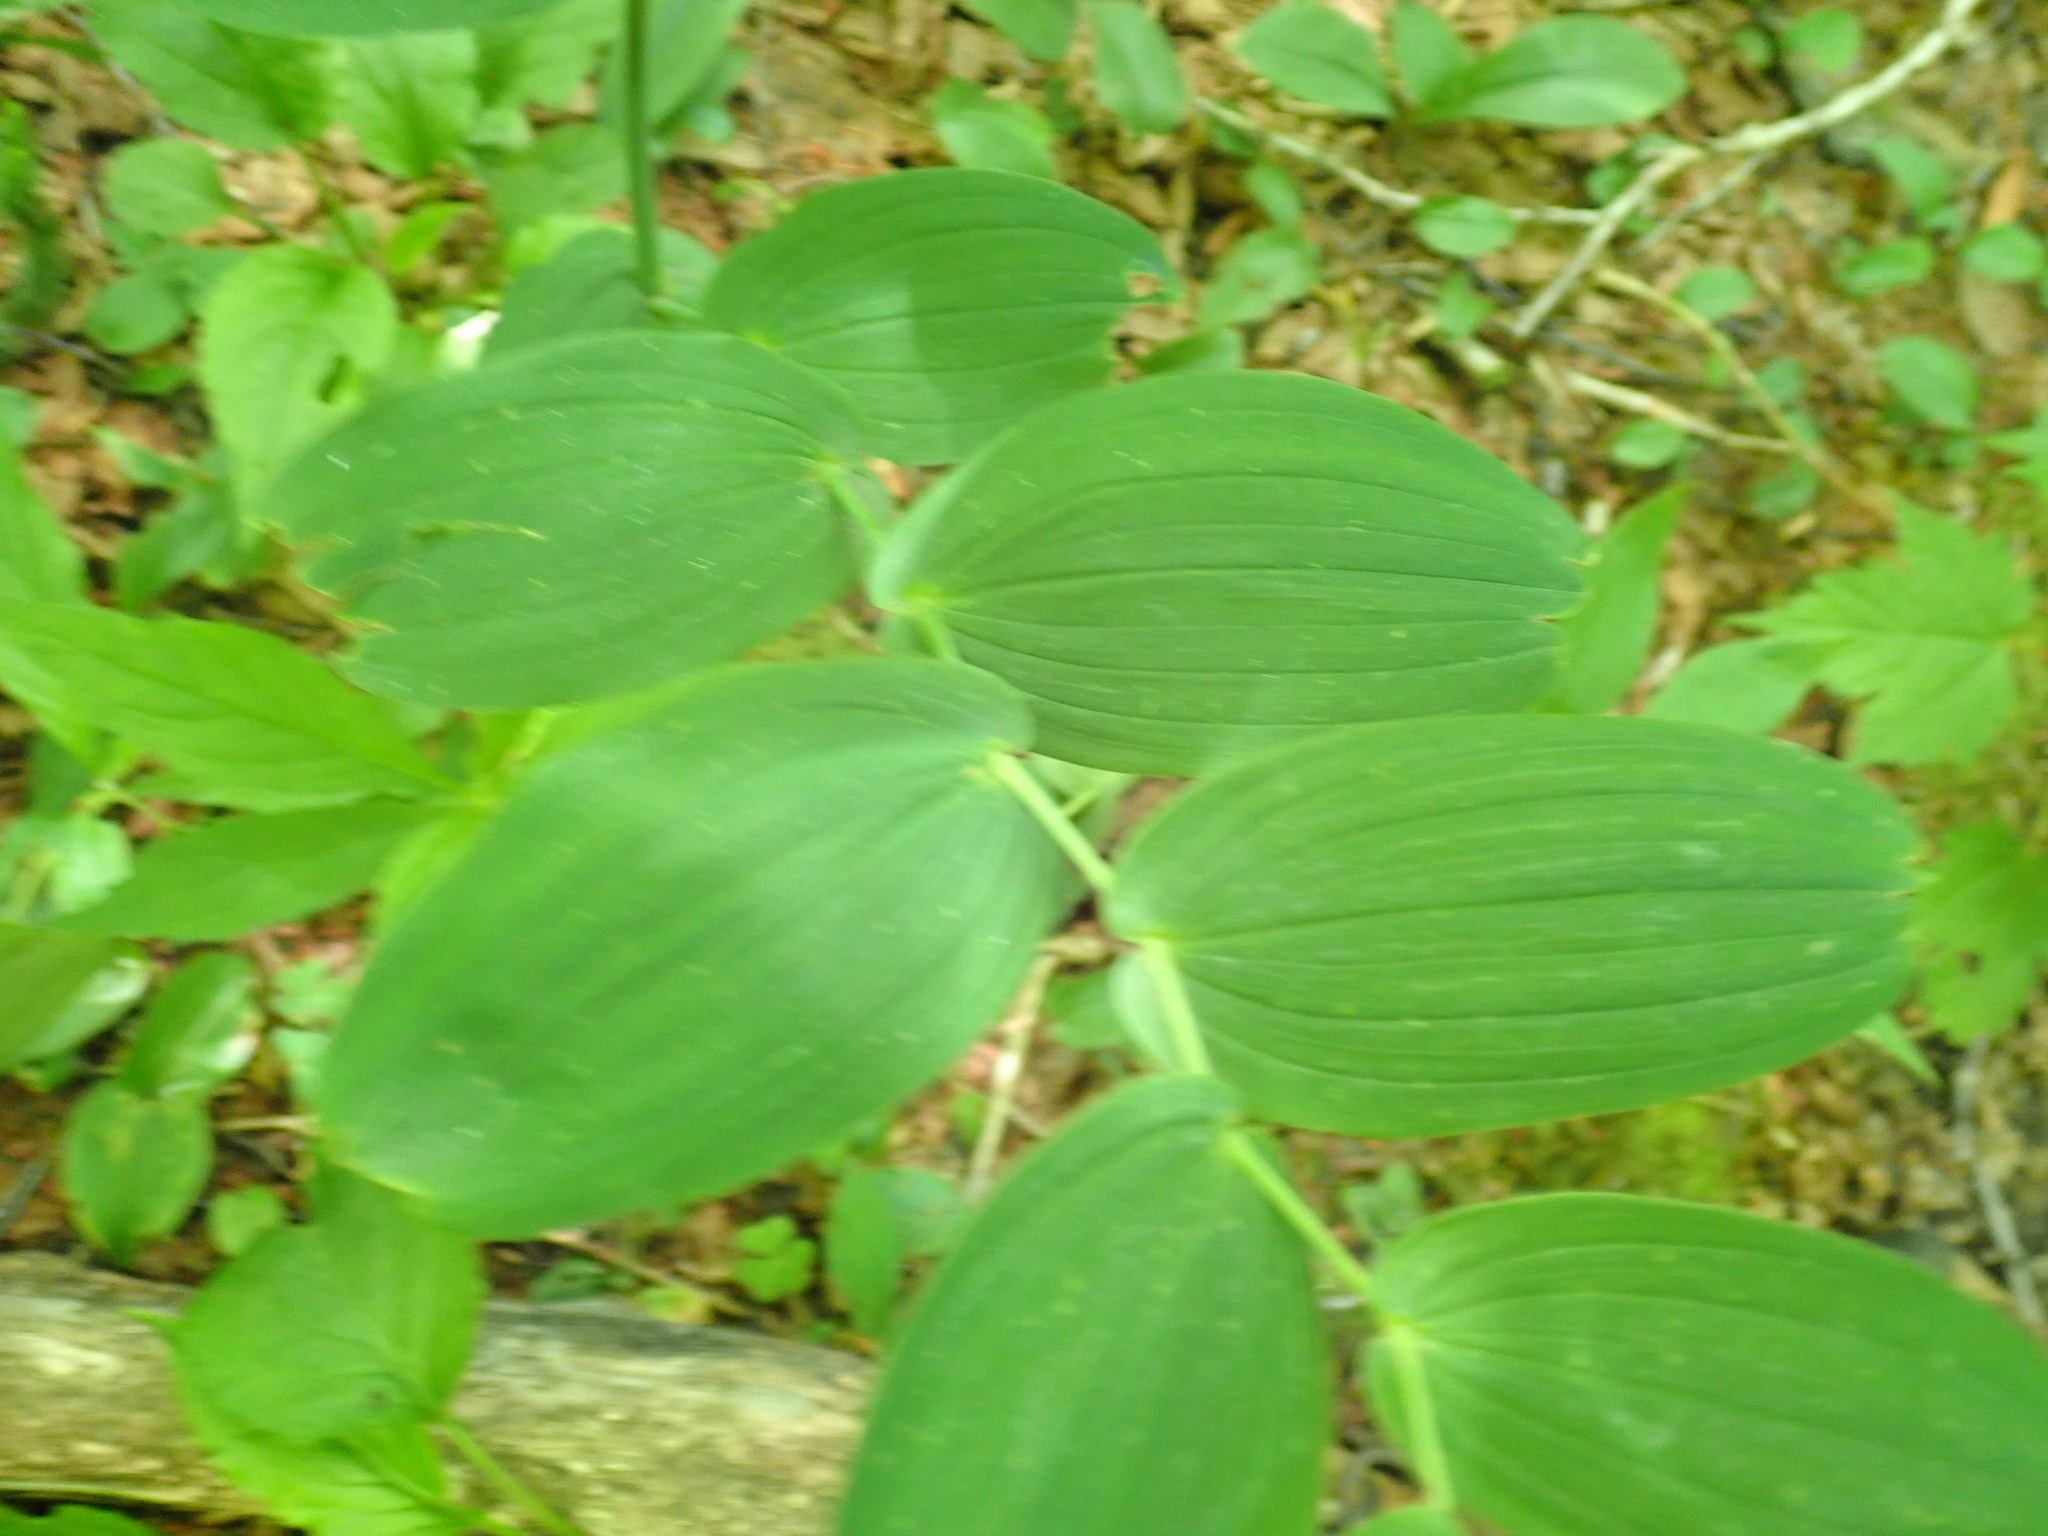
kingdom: Plantae
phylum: Tracheophyta
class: Liliopsida
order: Liliales
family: Liliaceae
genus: Streptopus
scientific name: Streptopus amplexifolius
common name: Clasp twisted stalk
